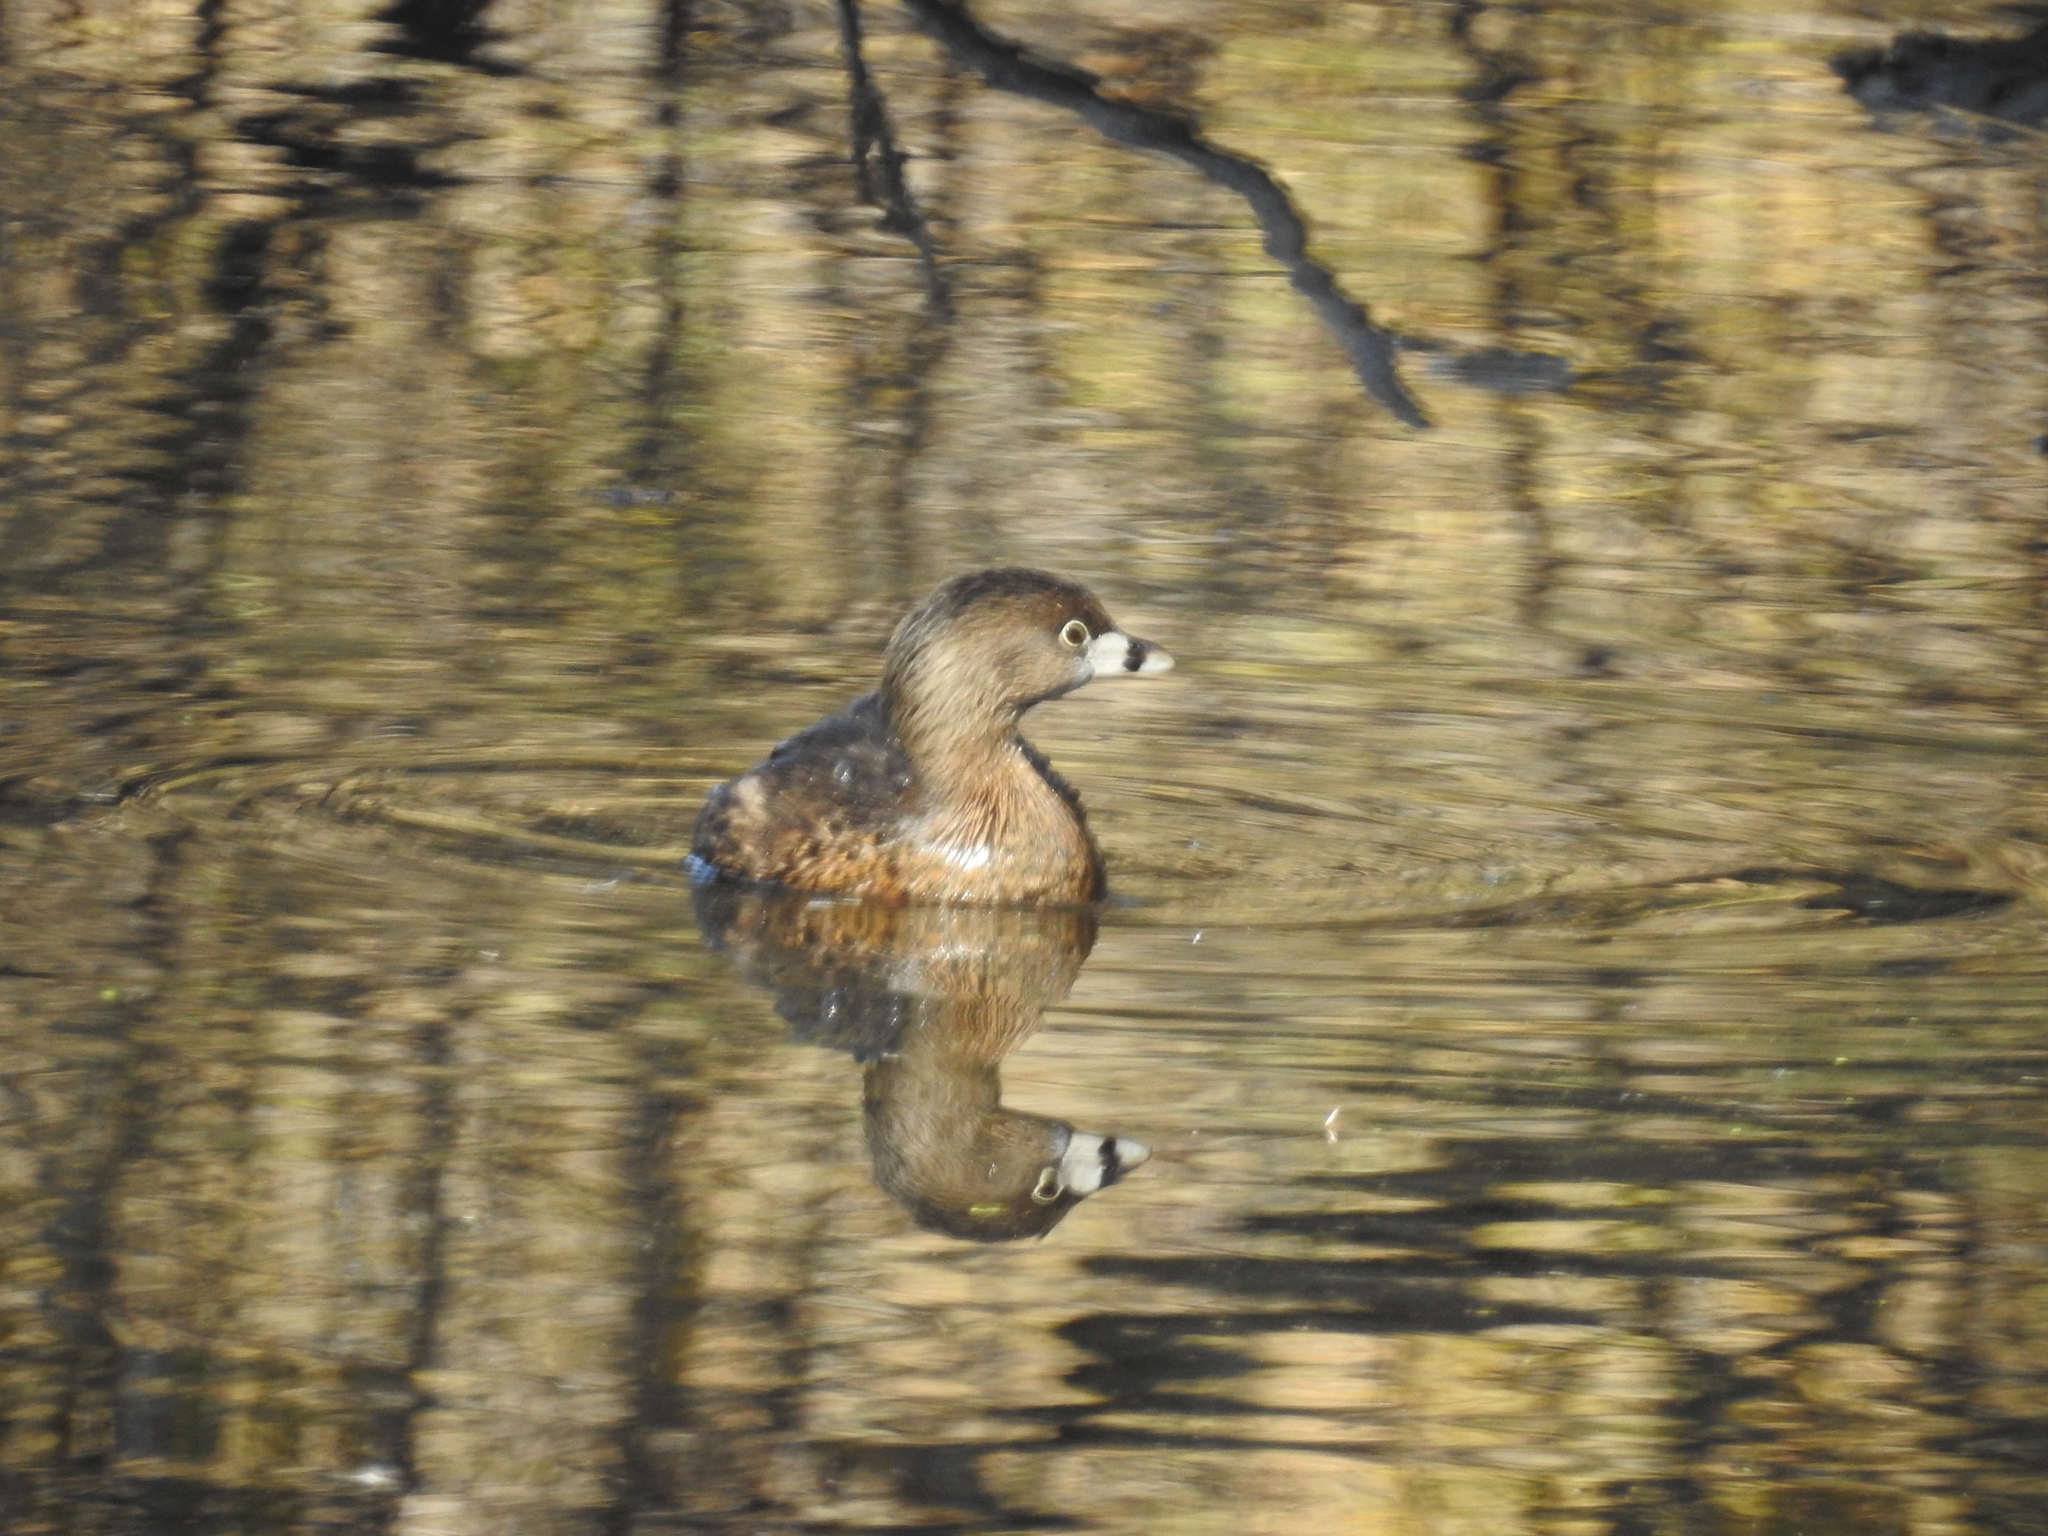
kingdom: Animalia
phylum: Chordata
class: Aves
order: Podicipediformes
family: Podicipedidae
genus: Podilymbus
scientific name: Podilymbus podiceps
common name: Pied-billed grebe
